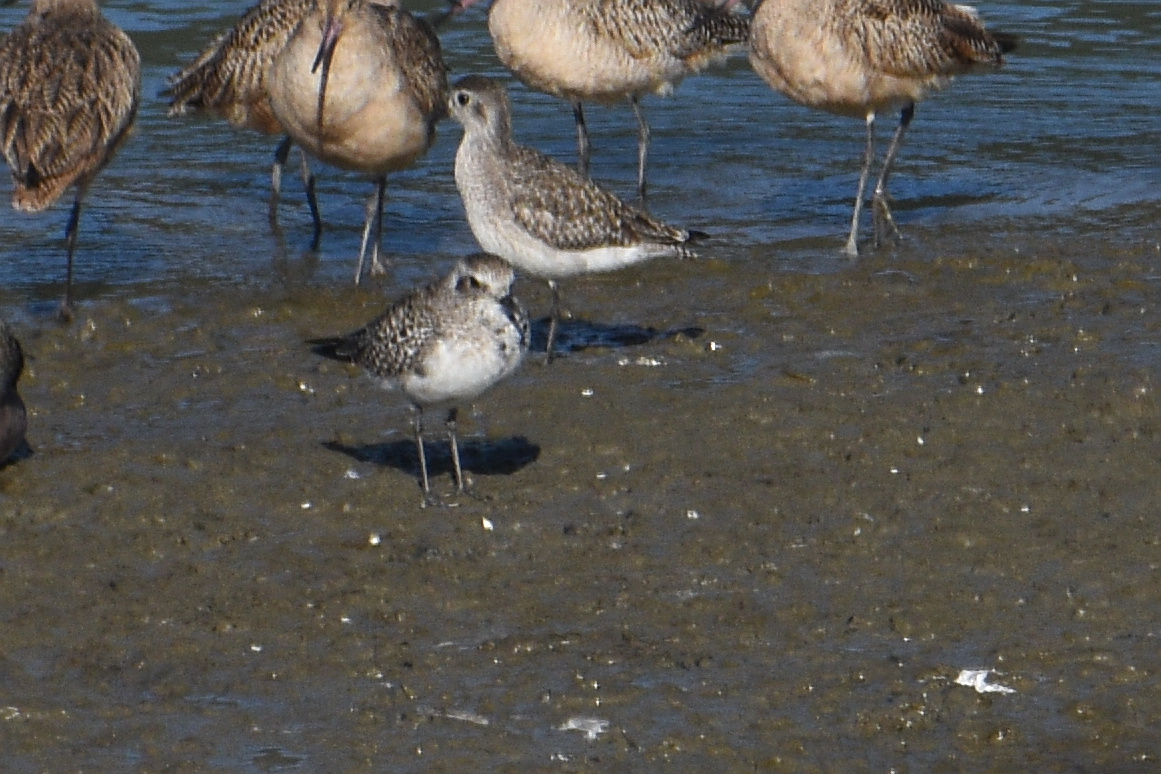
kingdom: Animalia
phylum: Chordata
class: Aves
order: Charadriiformes
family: Charadriidae
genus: Pluvialis
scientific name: Pluvialis squatarola
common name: Grey plover
